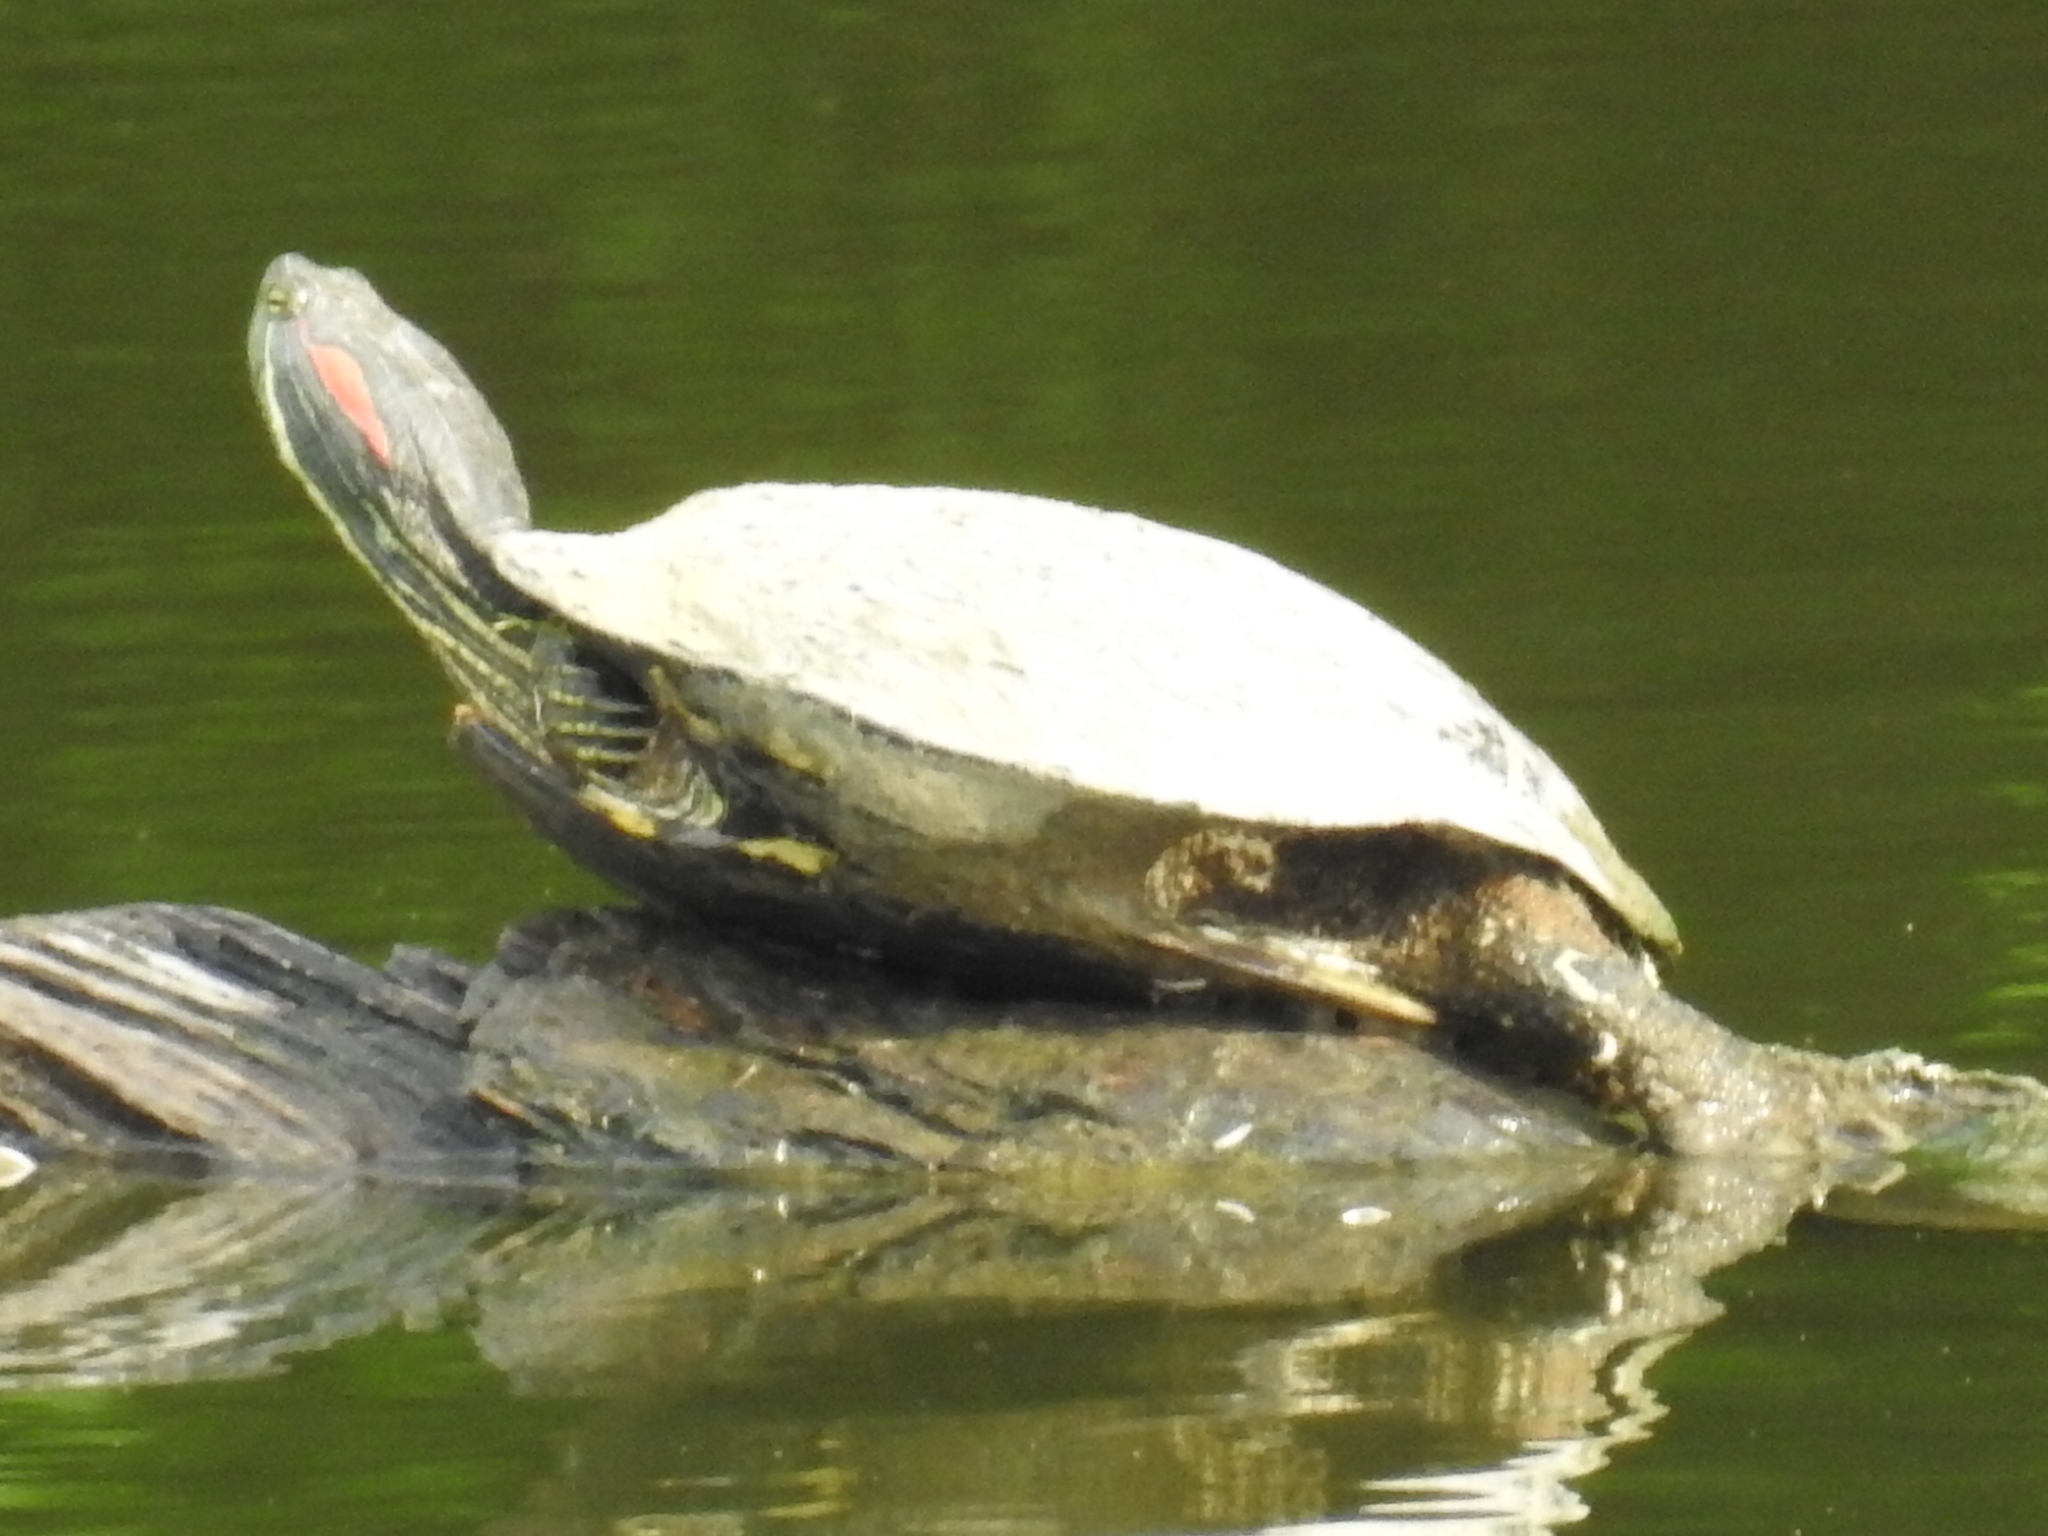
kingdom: Animalia
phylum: Chordata
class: Testudines
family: Emydidae
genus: Trachemys
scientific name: Trachemys scripta
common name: Slider
